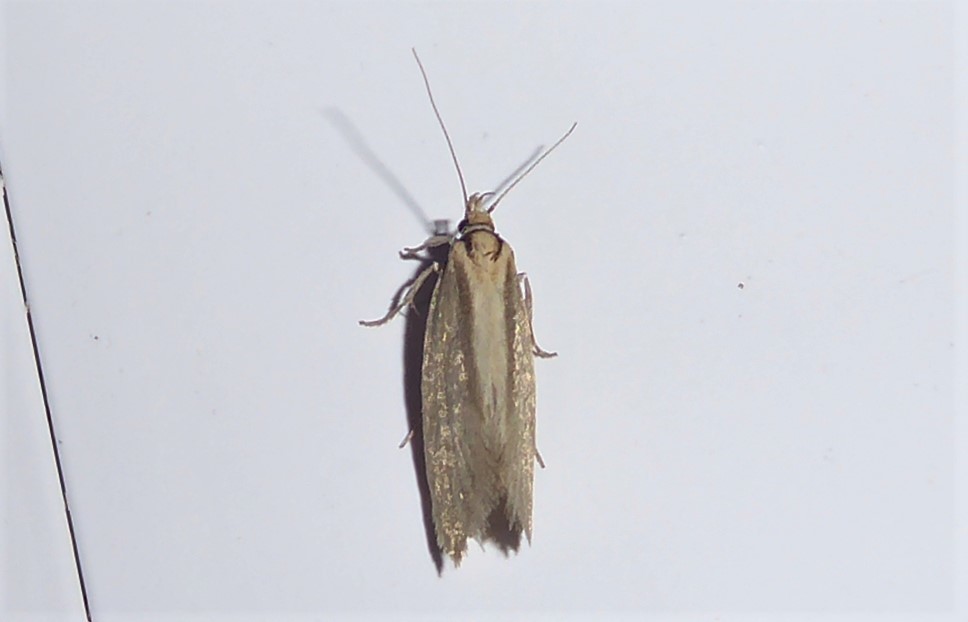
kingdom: Animalia
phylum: Arthropoda
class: Insecta
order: Lepidoptera
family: Oecophoridae
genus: Tingena
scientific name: Tingena chloradelpha
